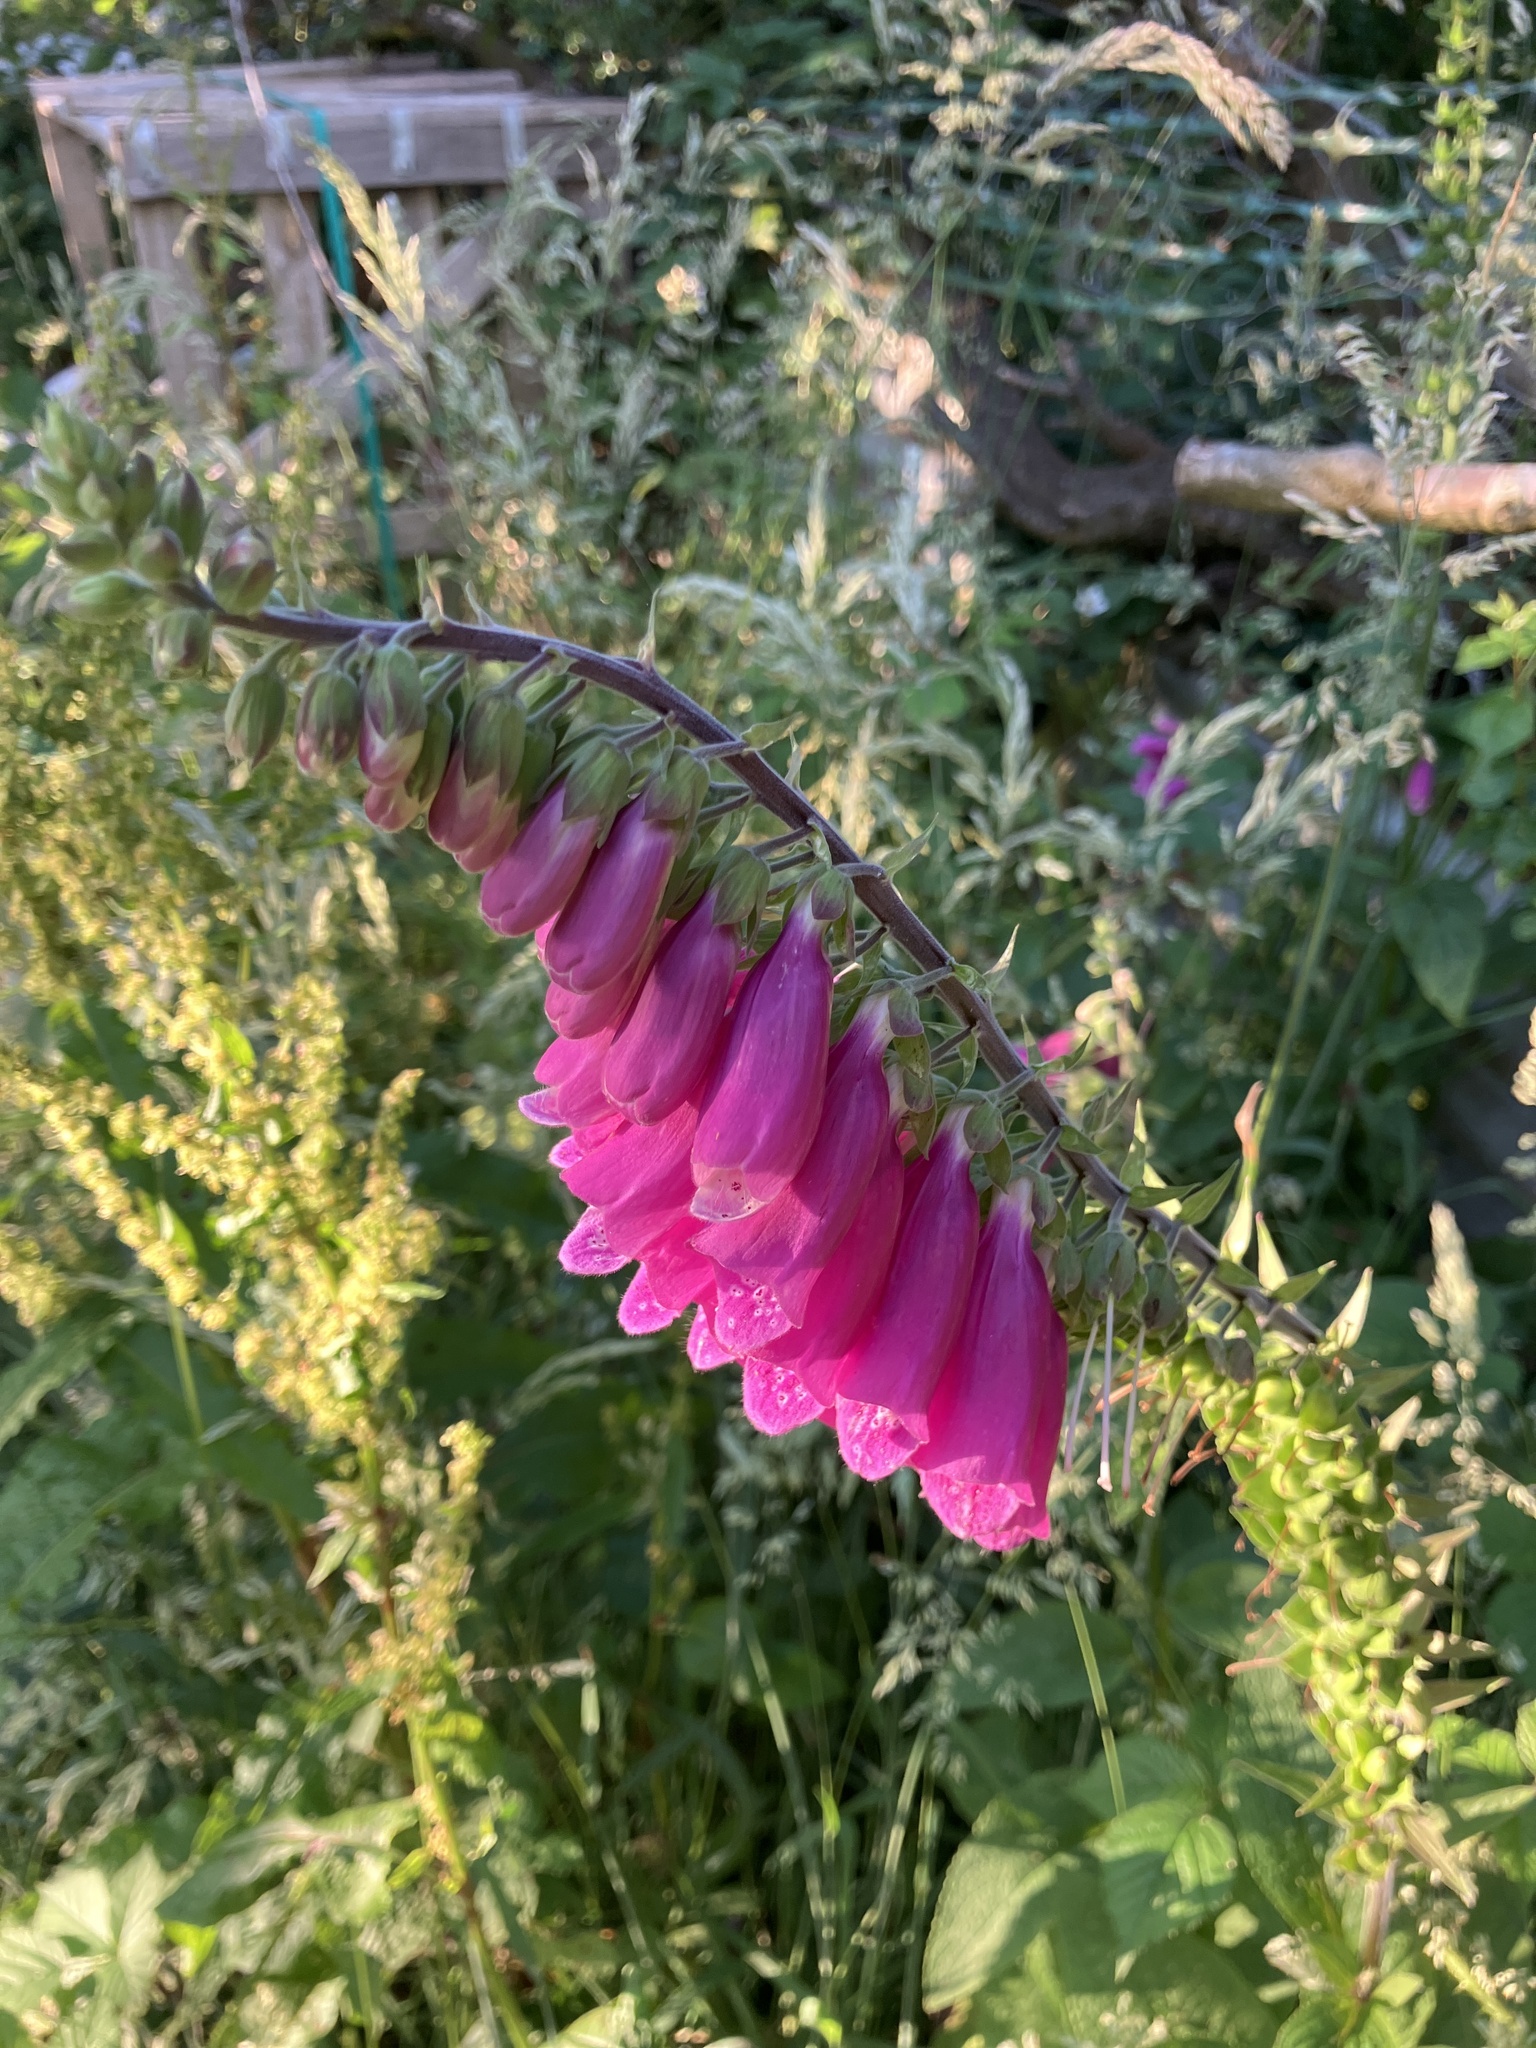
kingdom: Plantae
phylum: Tracheophyta
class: Magnoliopsida
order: Lamiales
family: Plantaginaceae
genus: Digitalis
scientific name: Digitalis purpurea
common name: Foxglove
